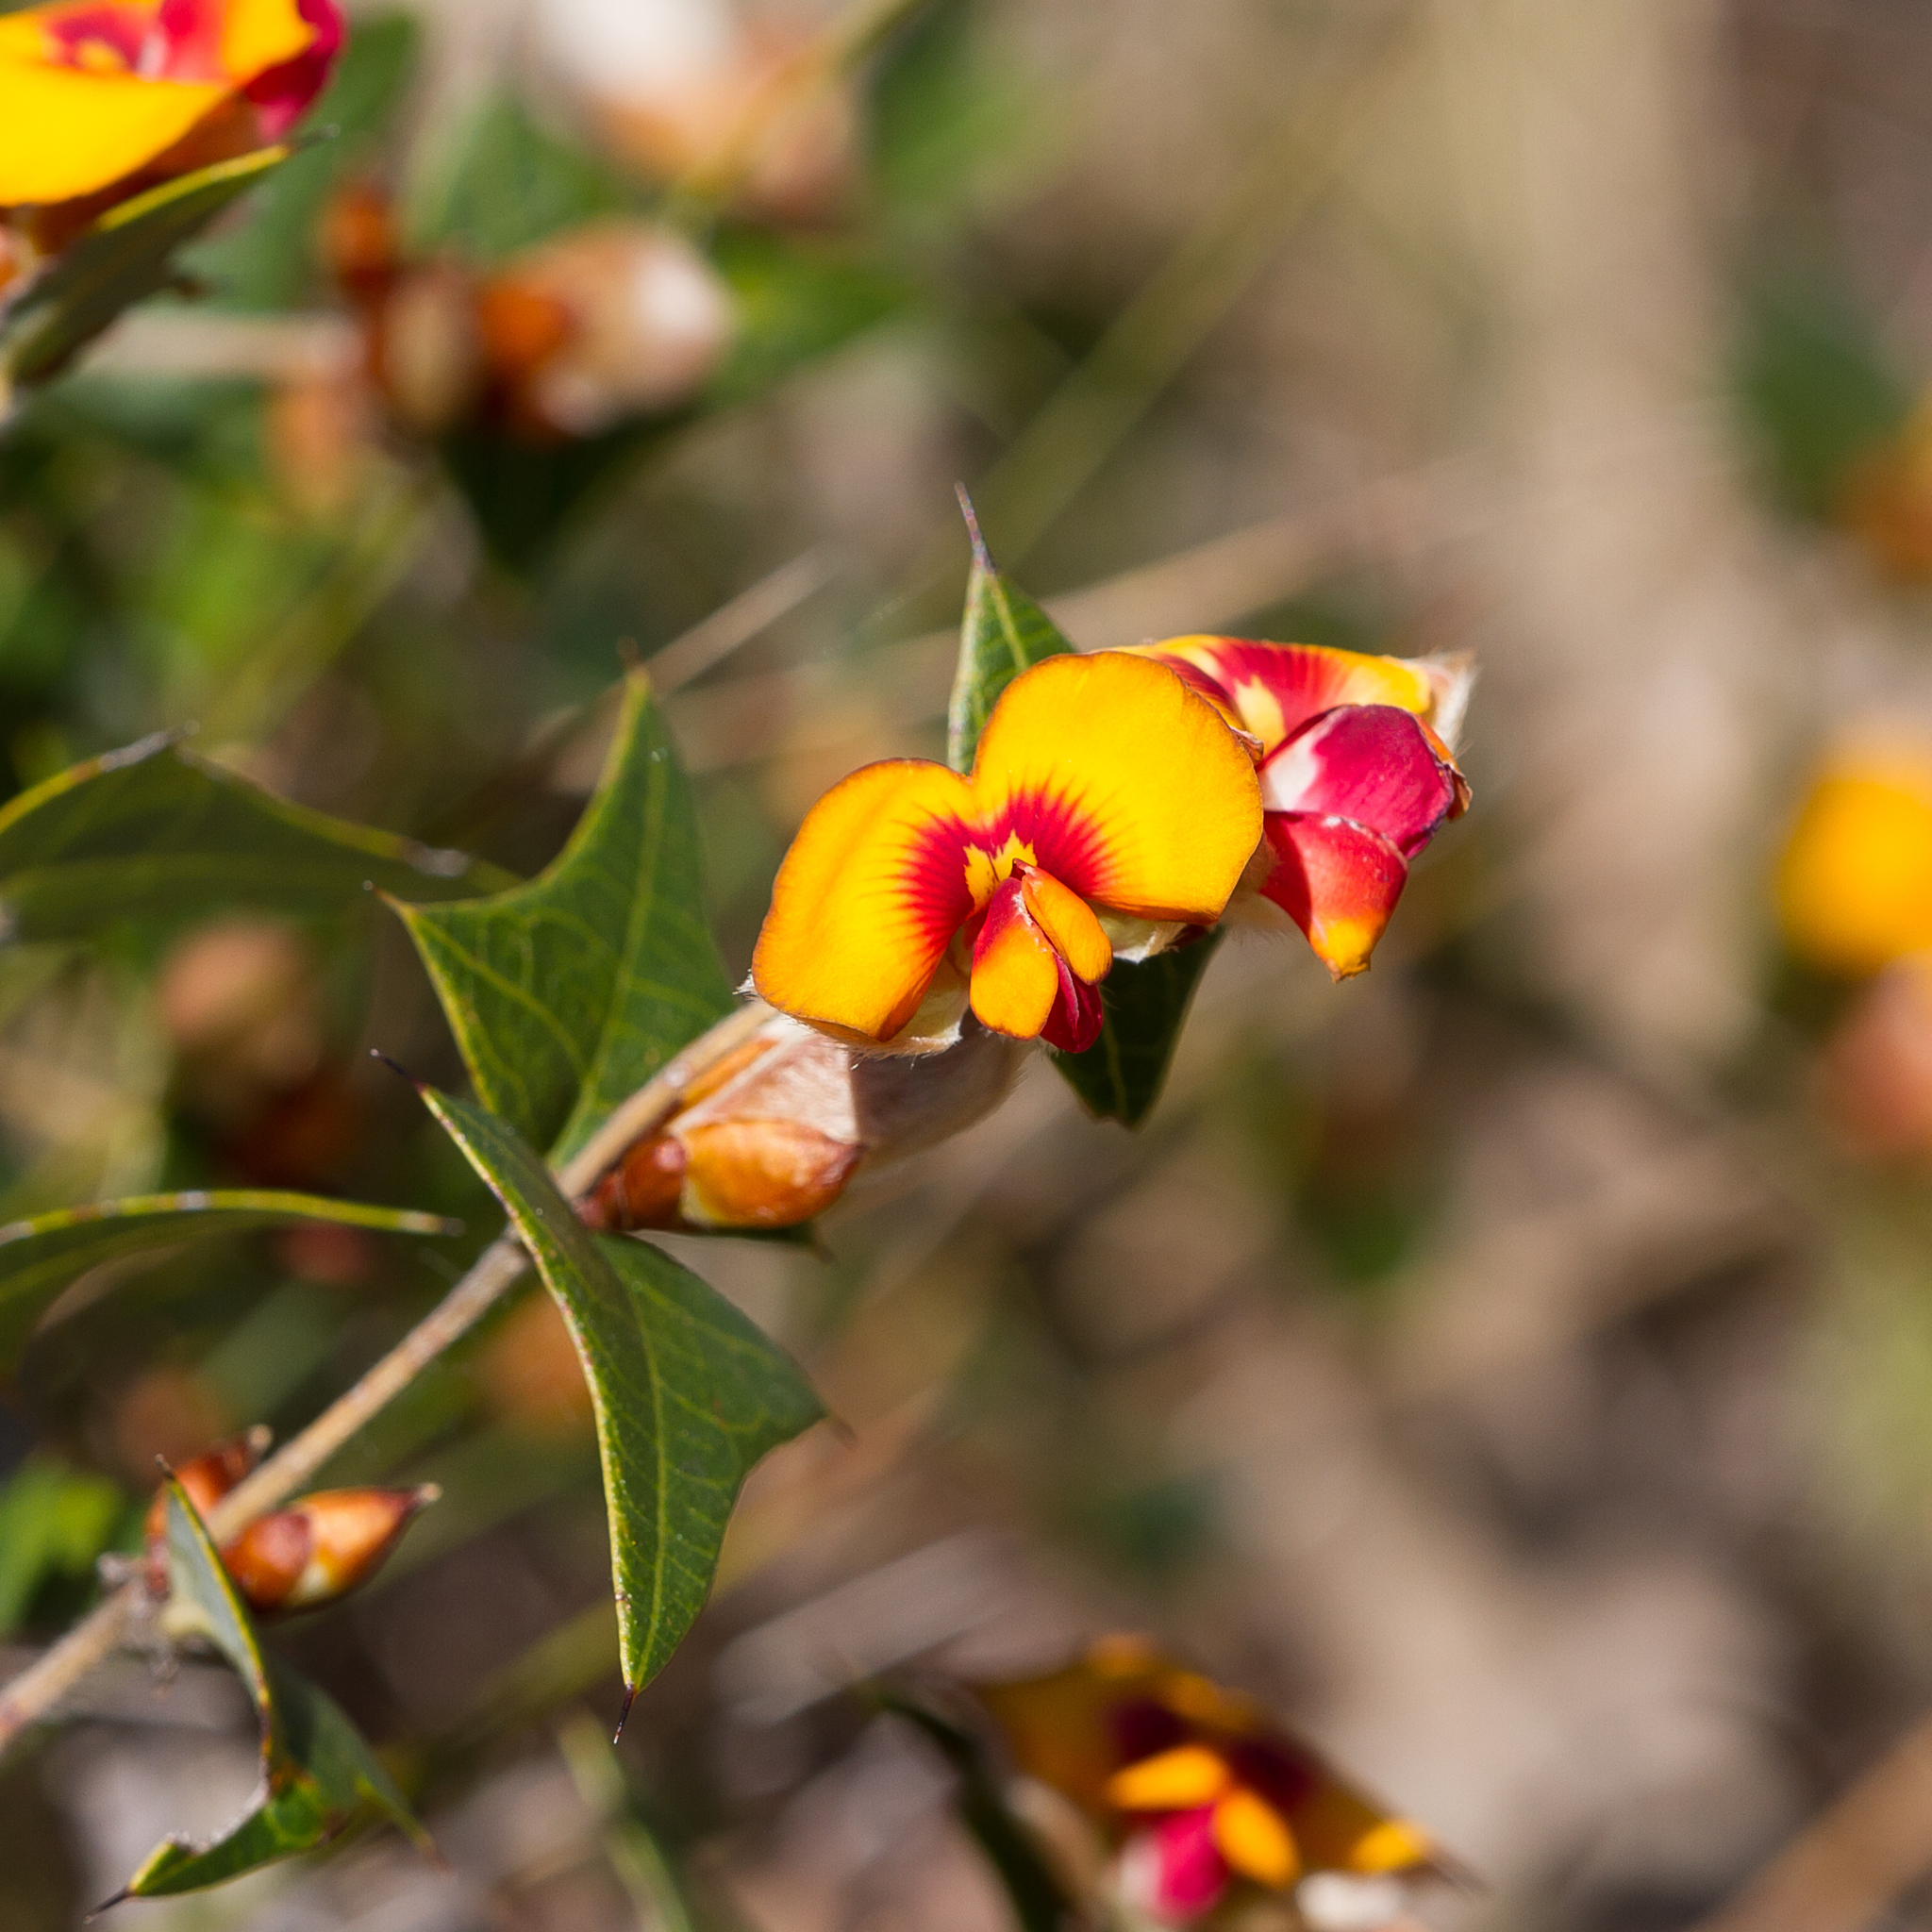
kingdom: Plantae
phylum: Tracheophyta
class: Magnoliopsida
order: Fabales
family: Fabaceae
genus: Platylobium
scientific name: Platylobium obtusangulum
